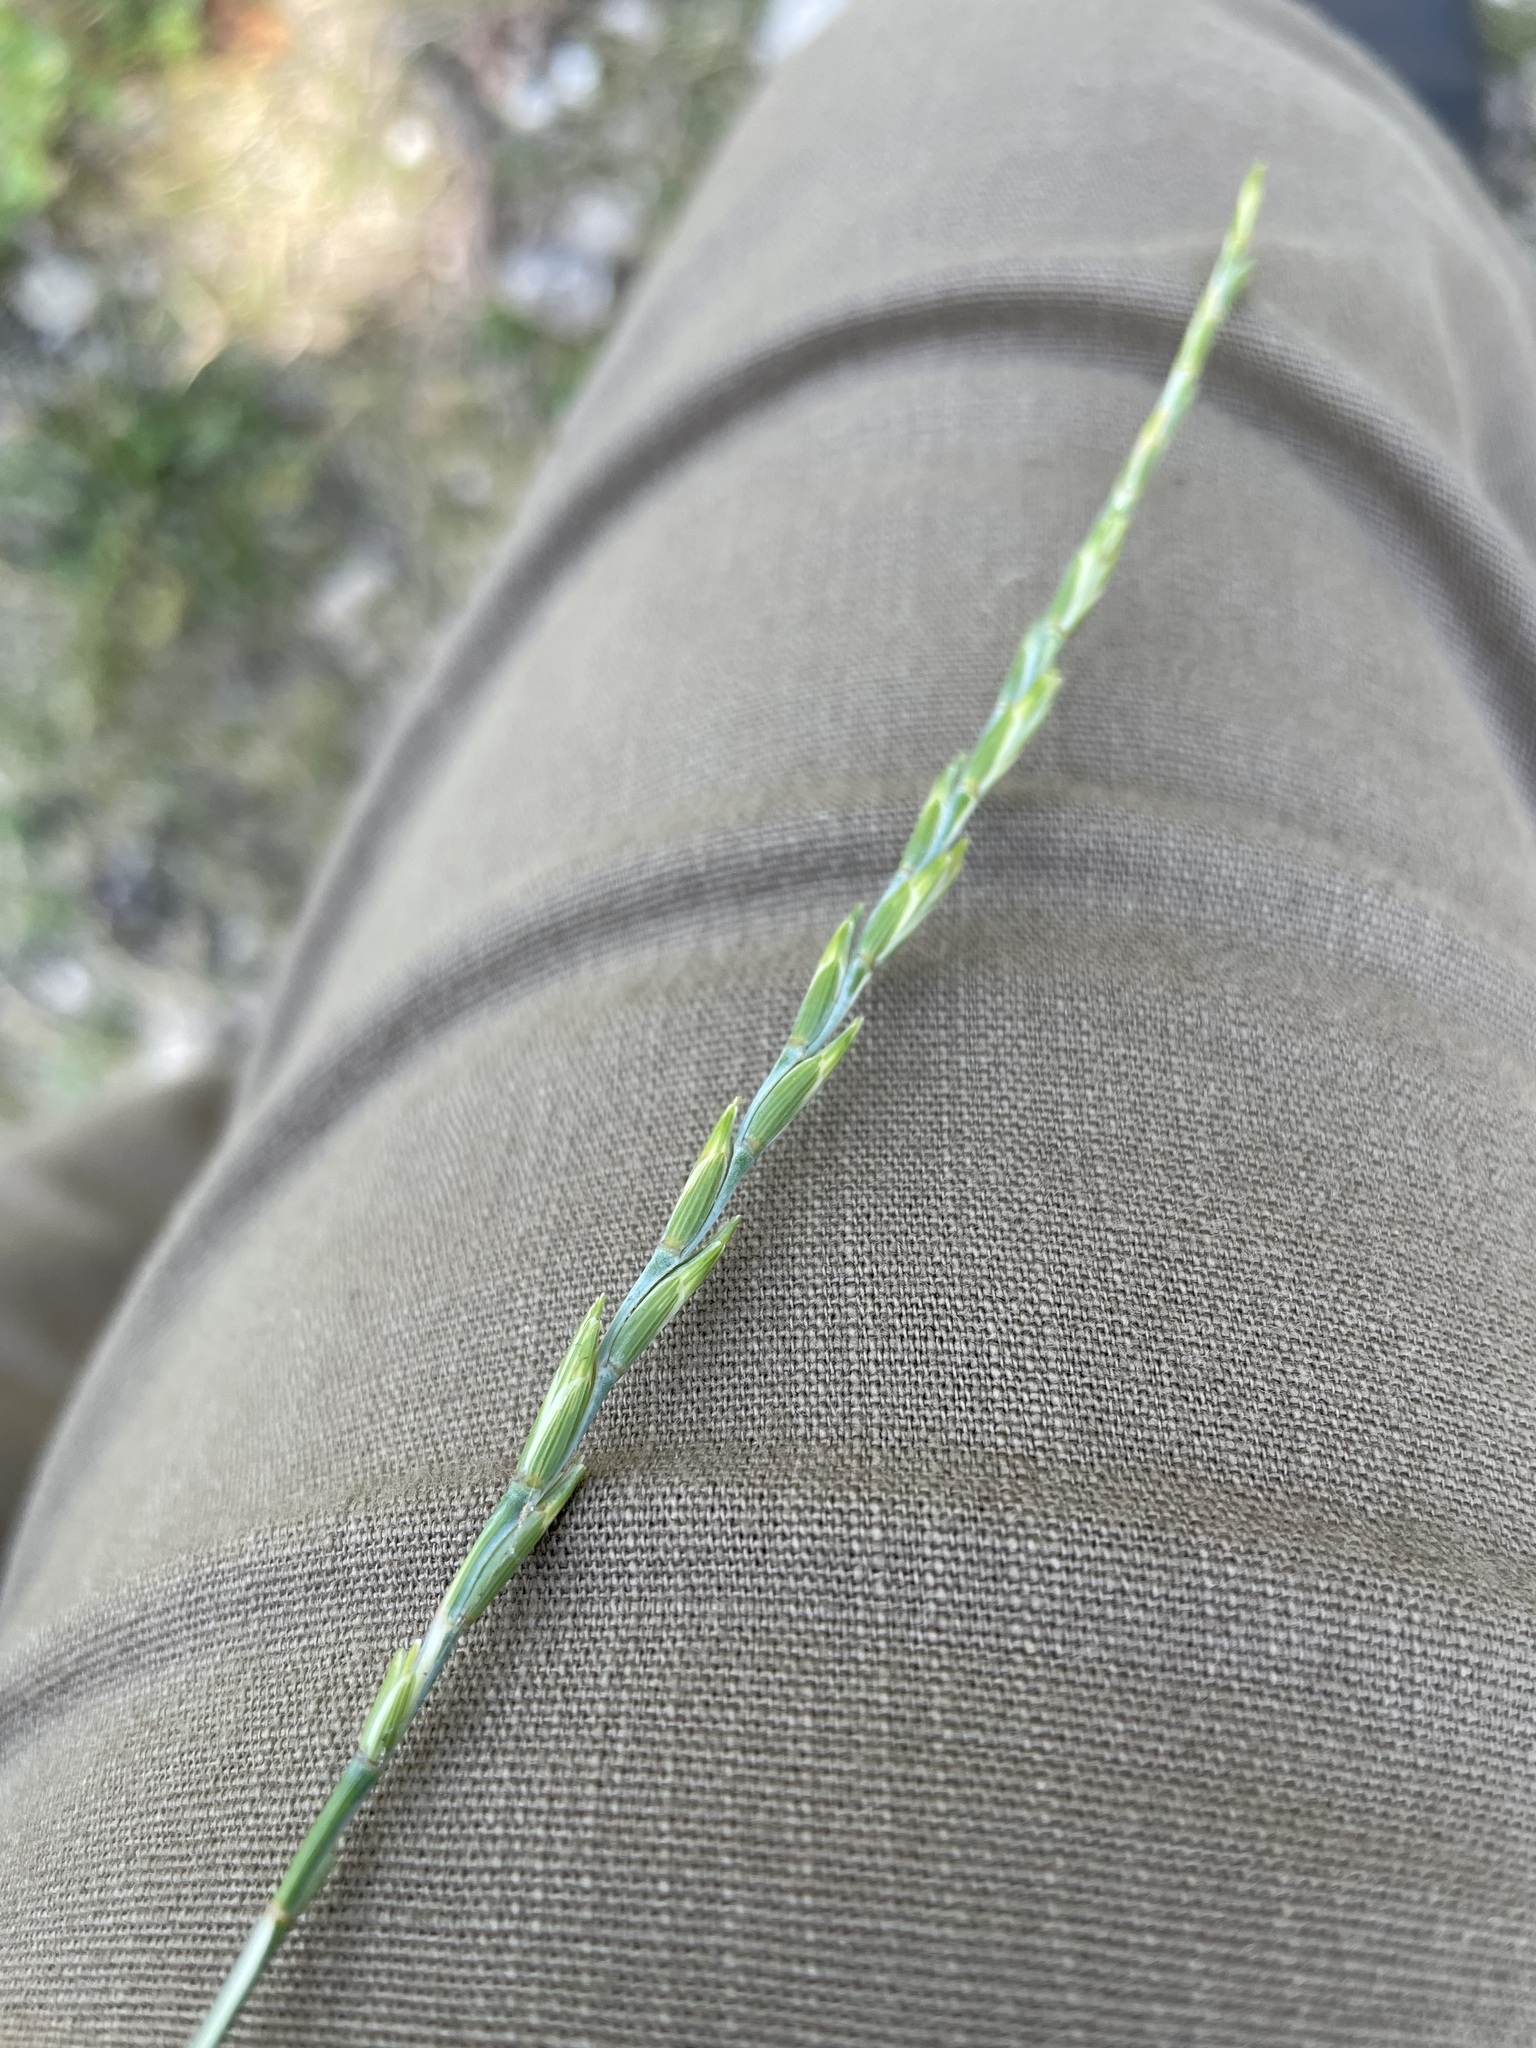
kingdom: Plantae
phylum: Tracheophyta
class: Liliopsida
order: Poales
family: Poaceae
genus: Thinopyrum
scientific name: Thinopyrum intermedium
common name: Intermediate wheatgrass
